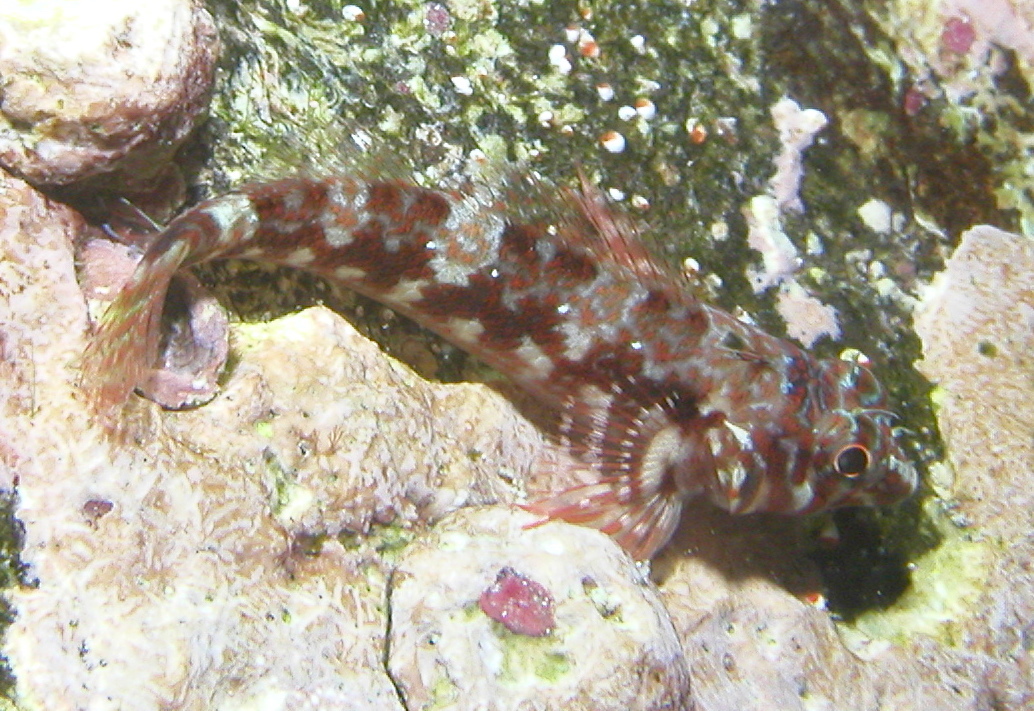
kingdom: Animalia
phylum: Chordata
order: Perciformes
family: Tripterygiidae
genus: Lepidonectes
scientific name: Lepidonectes corallicola
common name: Galapagos triplefin blenny
